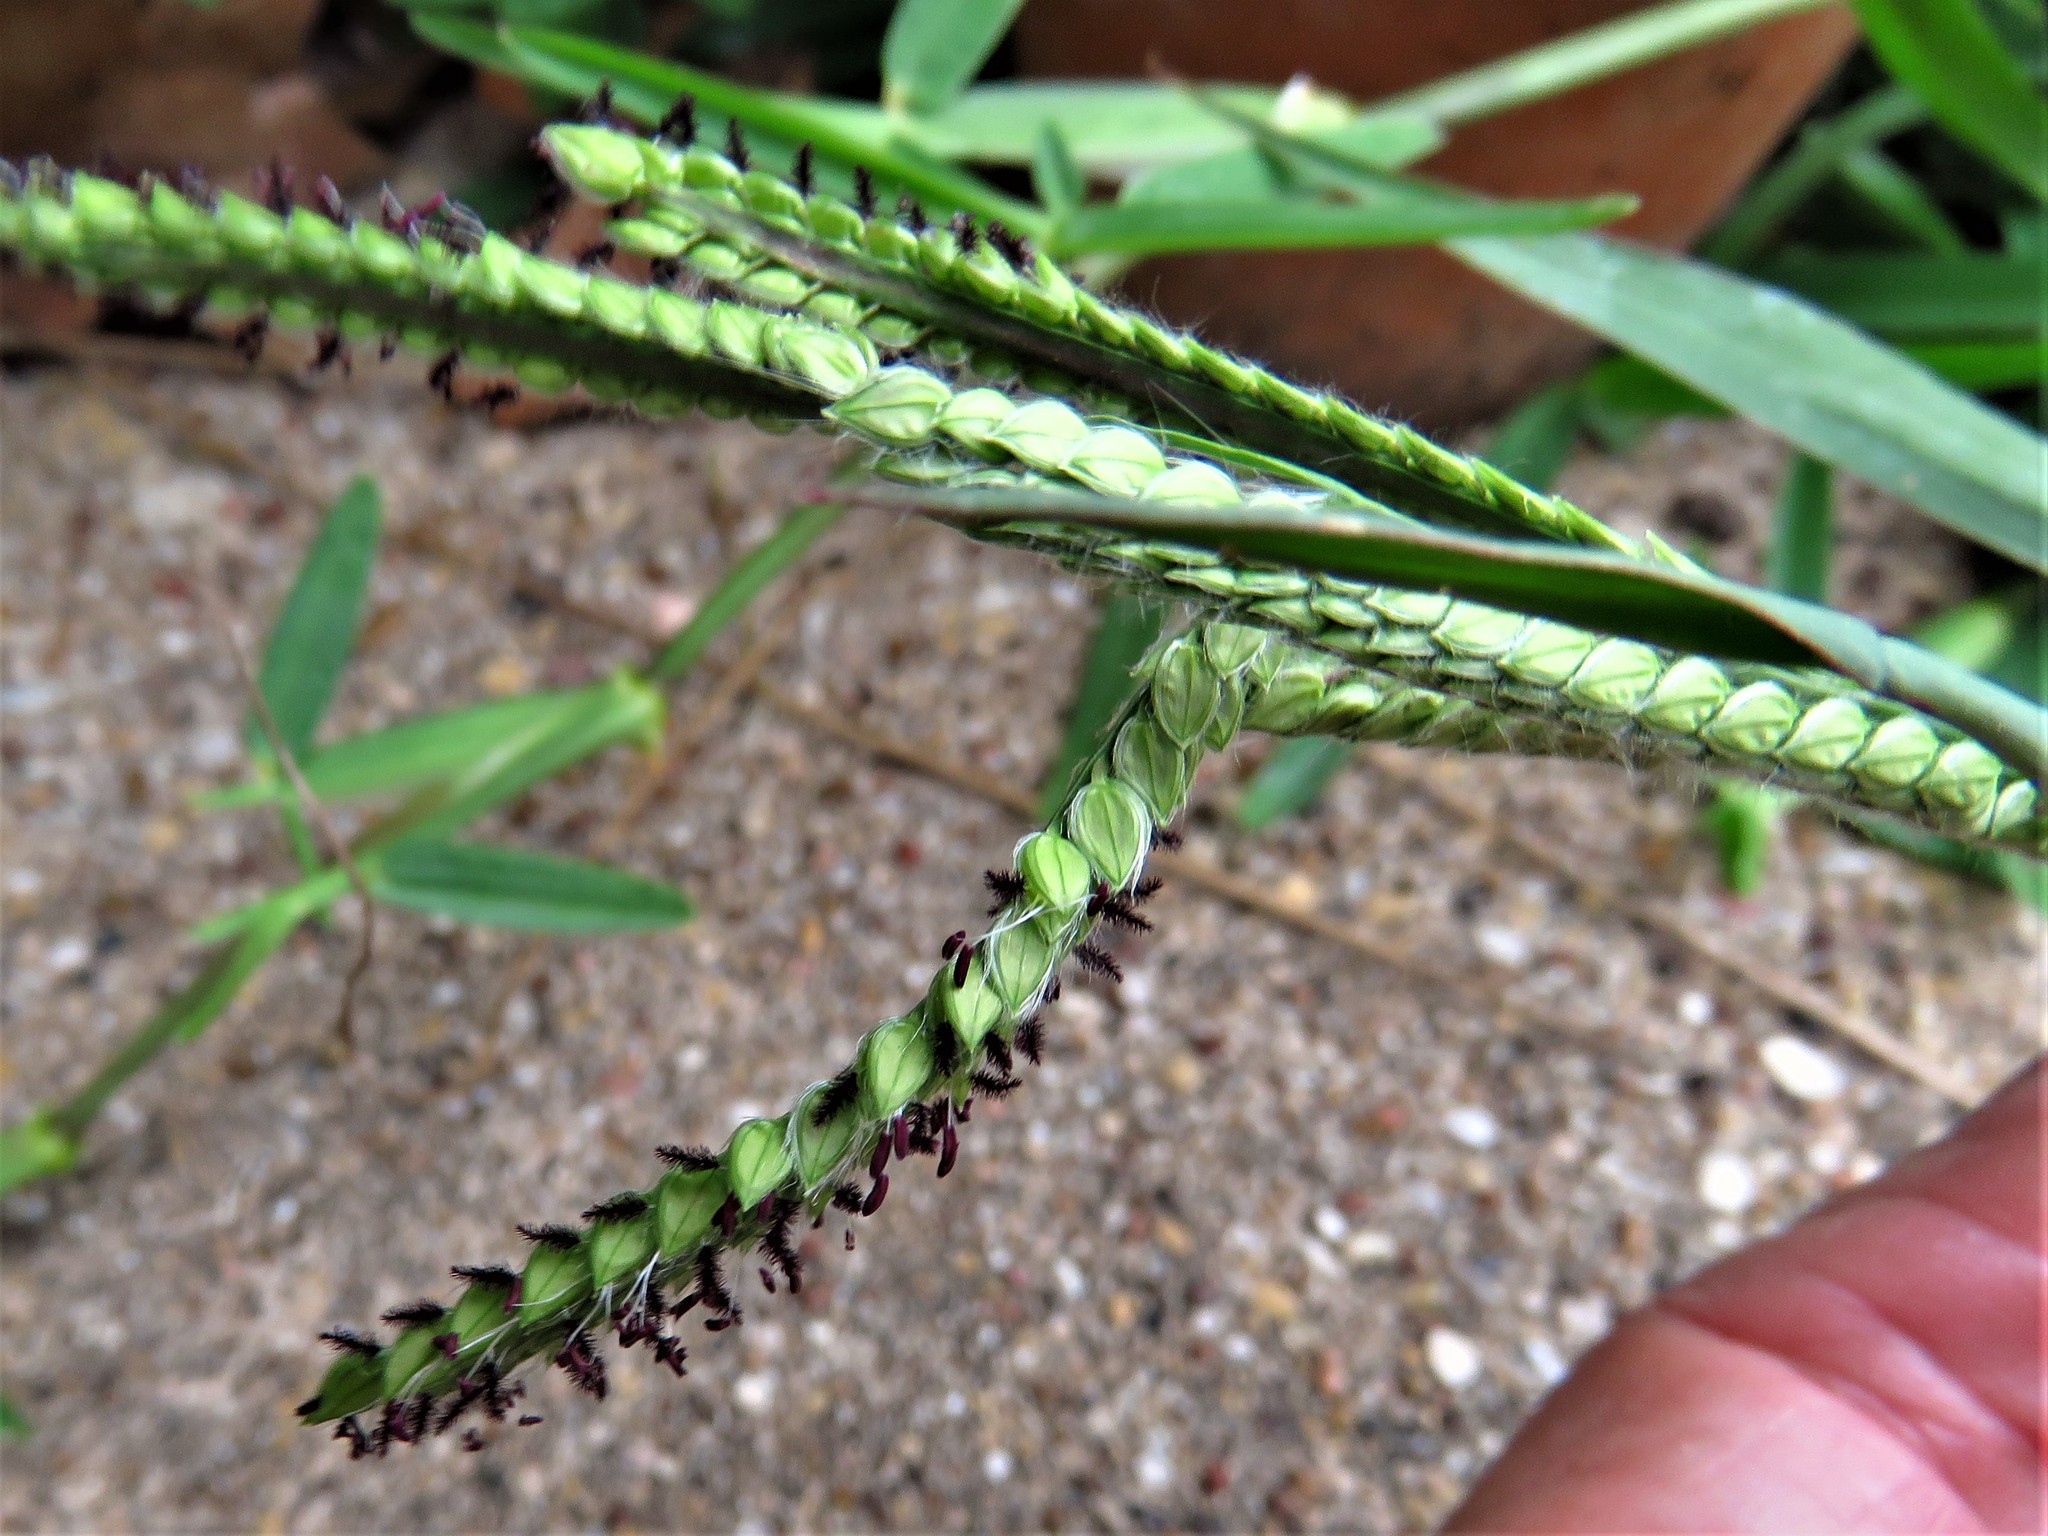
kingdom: Plantae
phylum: Tracheophyta
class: Liliopsida
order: Poales
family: Poaceae
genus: Paspalum
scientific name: Paspalum dilatatum
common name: Dallisgrass
